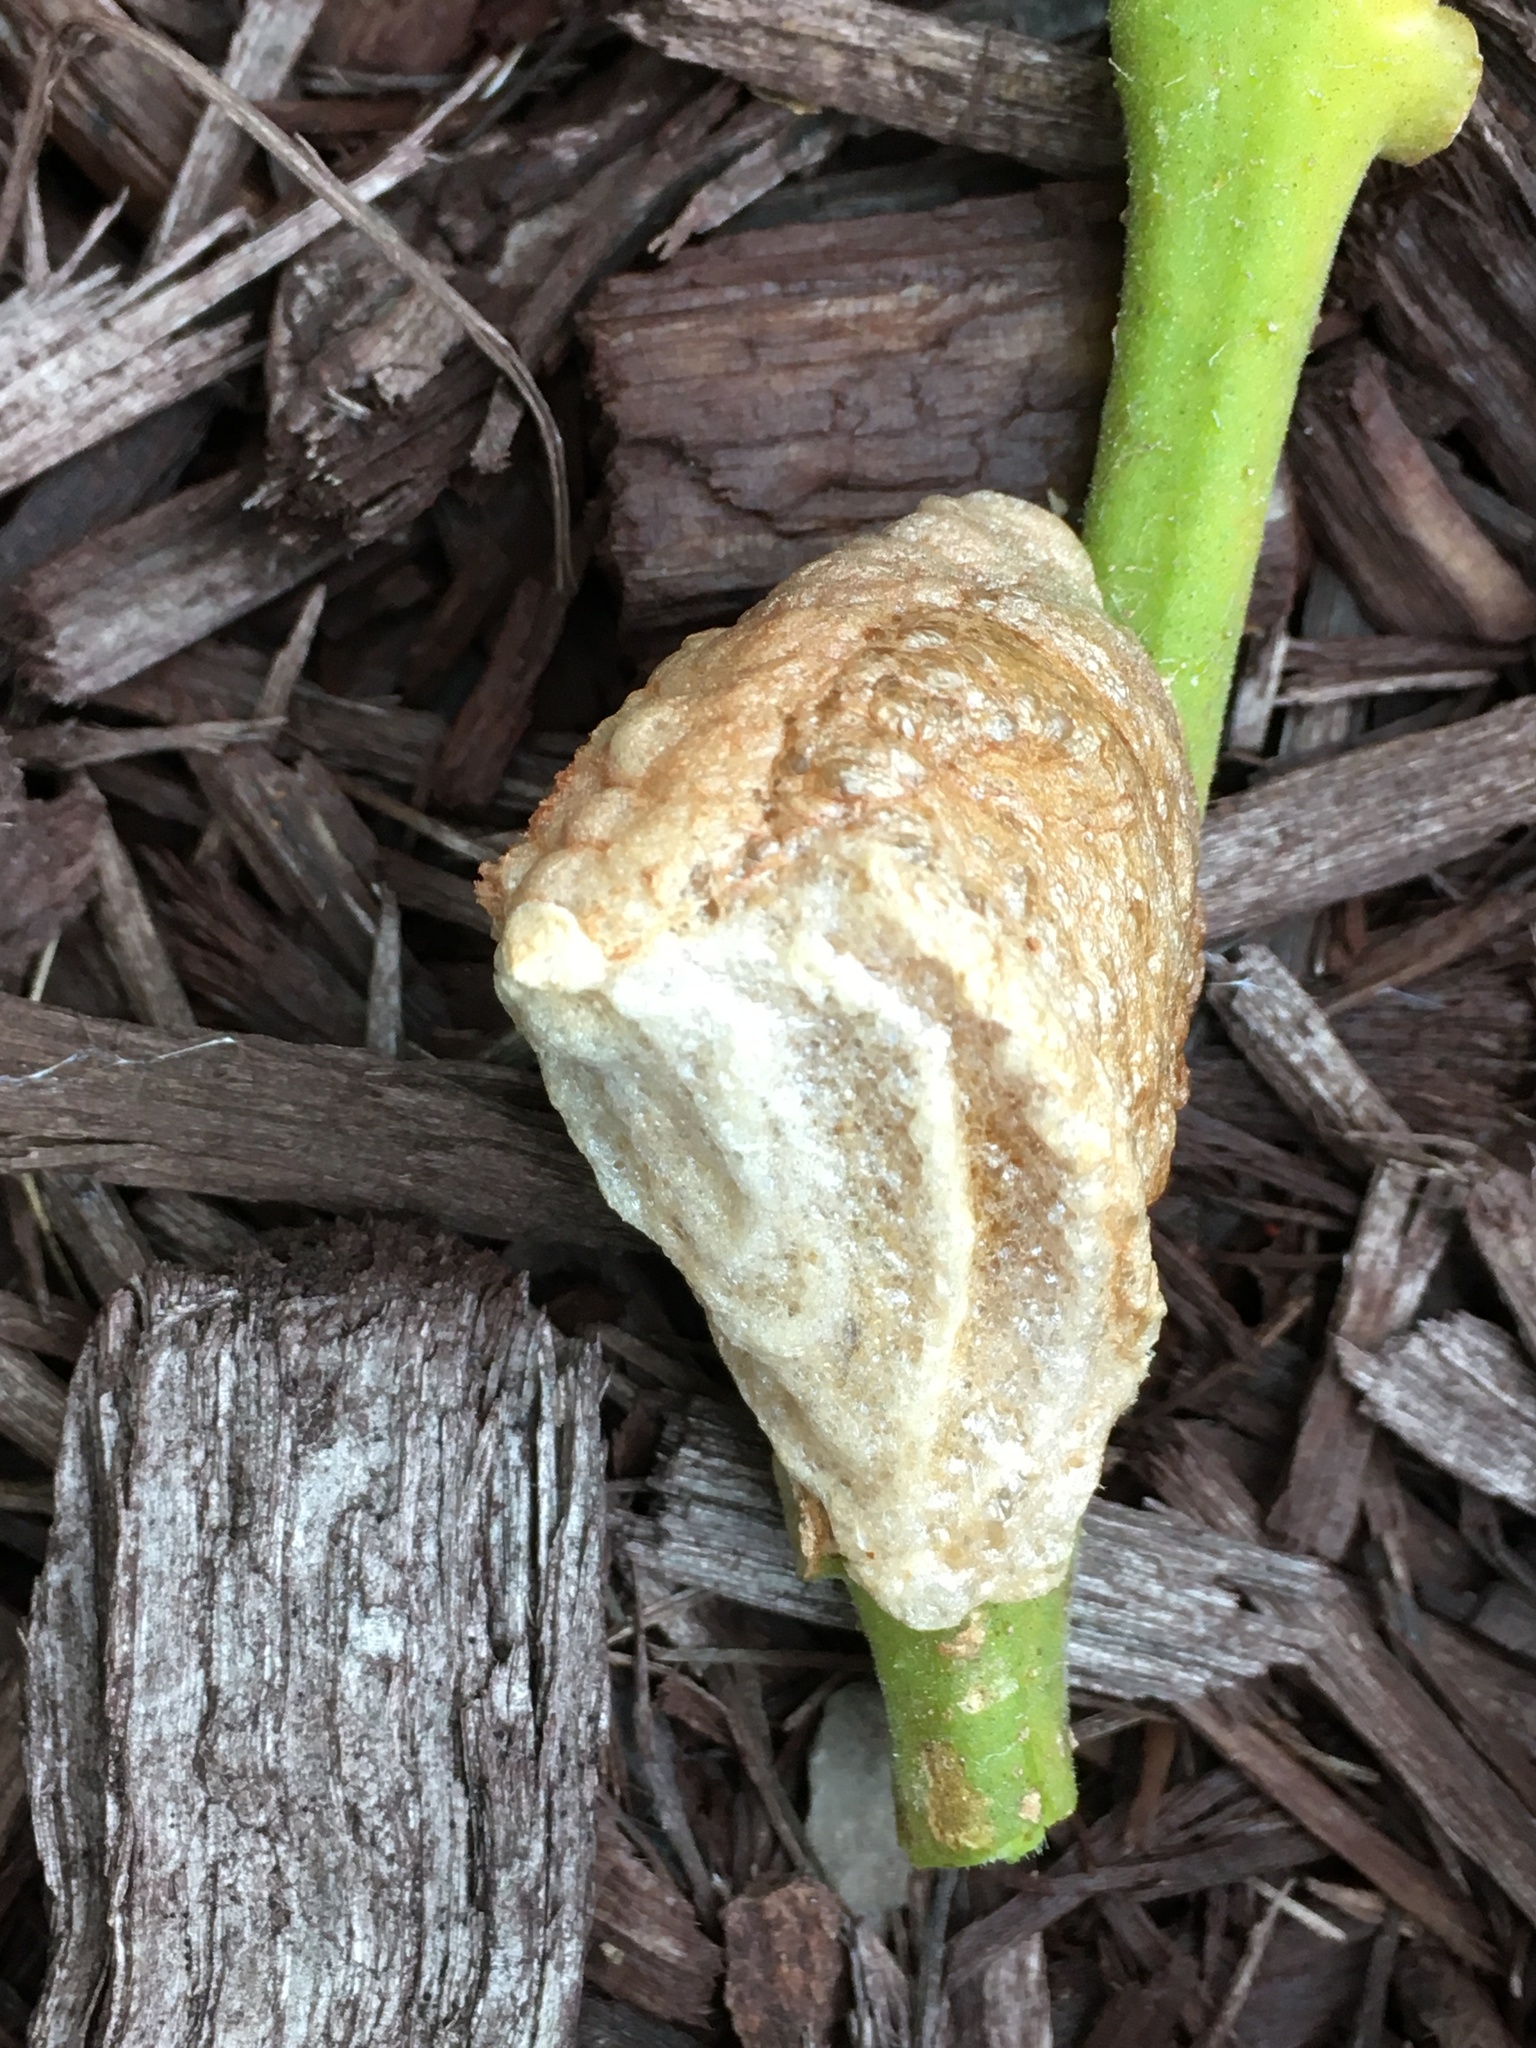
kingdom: Animalia
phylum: Arthropoda
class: Insecta
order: Mantodea
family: Mantidae
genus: Tenodera
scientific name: Tenodera sinensis
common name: Chinese mantis
